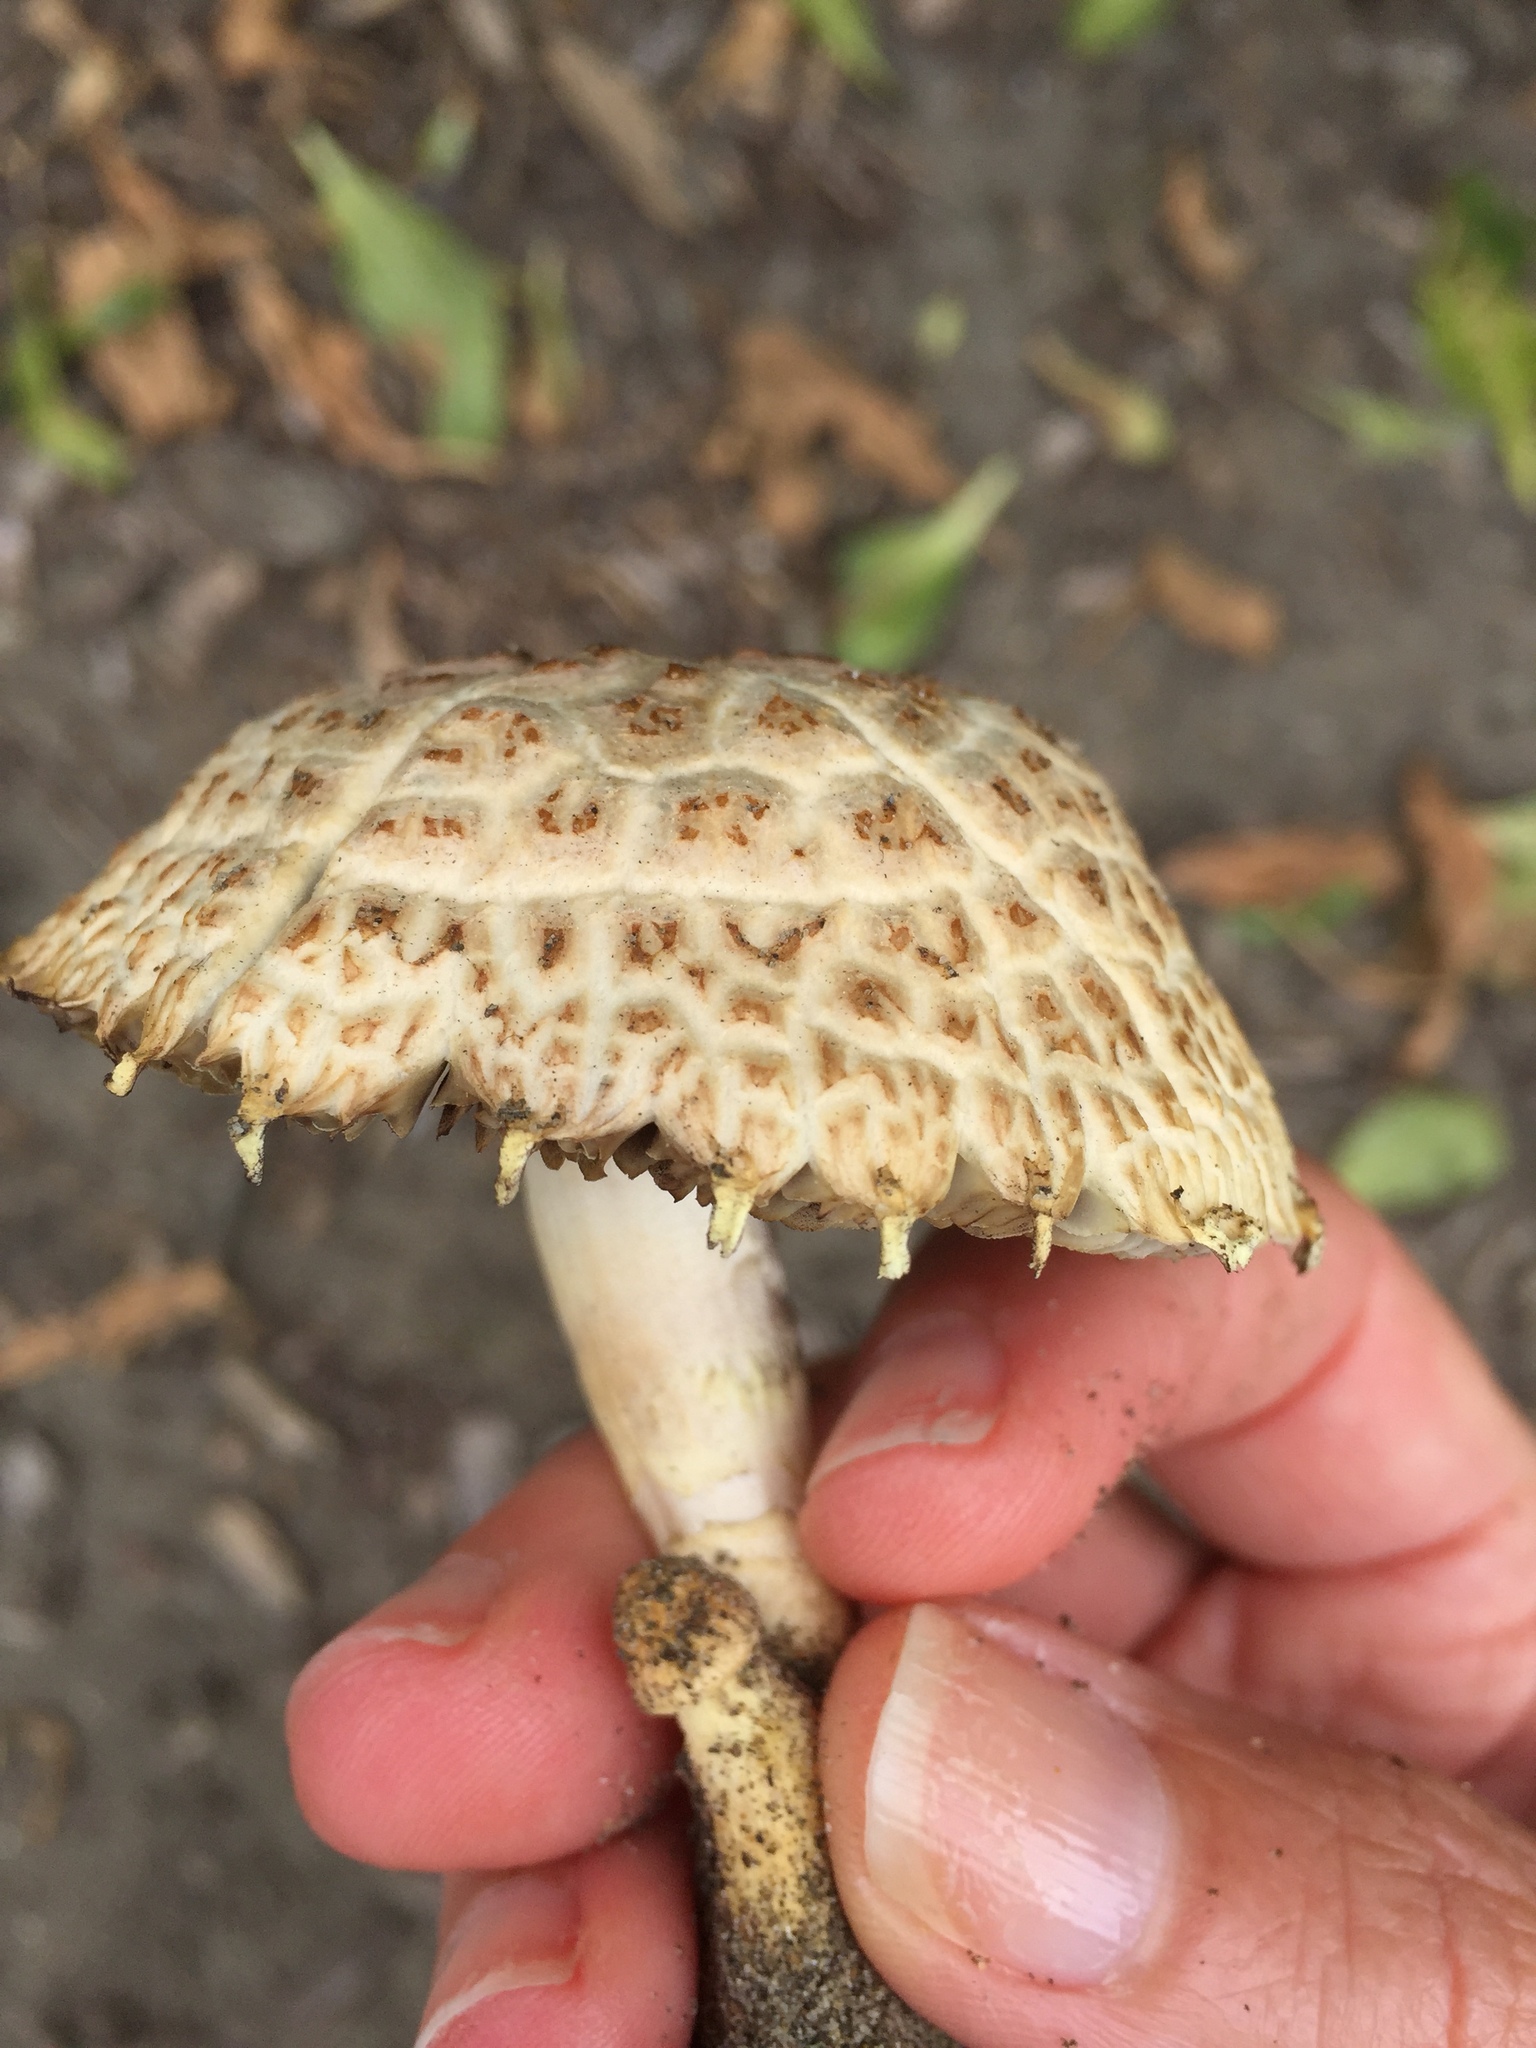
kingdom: Fungi
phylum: Basidiomycota
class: Agaricomycetes
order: Agaricales
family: Strophariaceae
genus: Leratiomyces
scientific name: Leratiomyces percevalii
